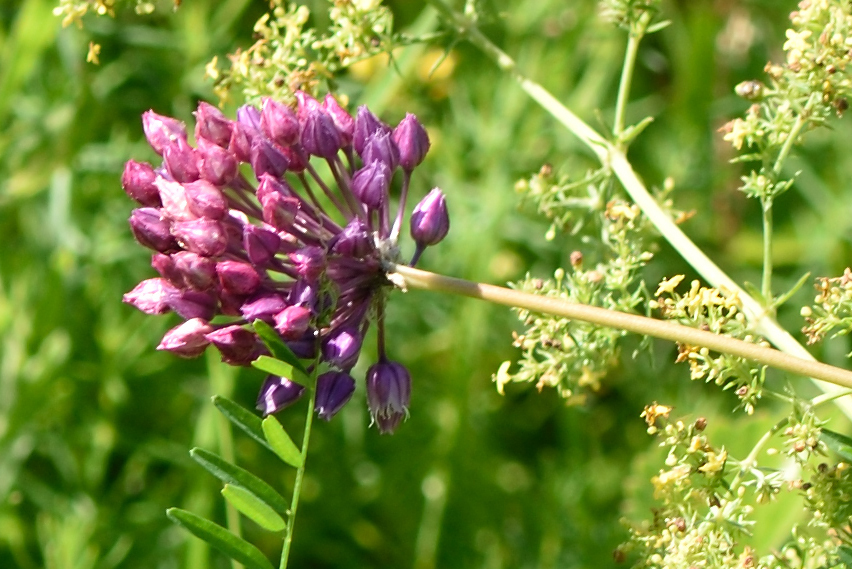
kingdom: Plantae
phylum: Tracheophyta
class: Liliopsida
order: Asparagales
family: Amaryllidaceae
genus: Allium
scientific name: Allium rotundum
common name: Sand leek
